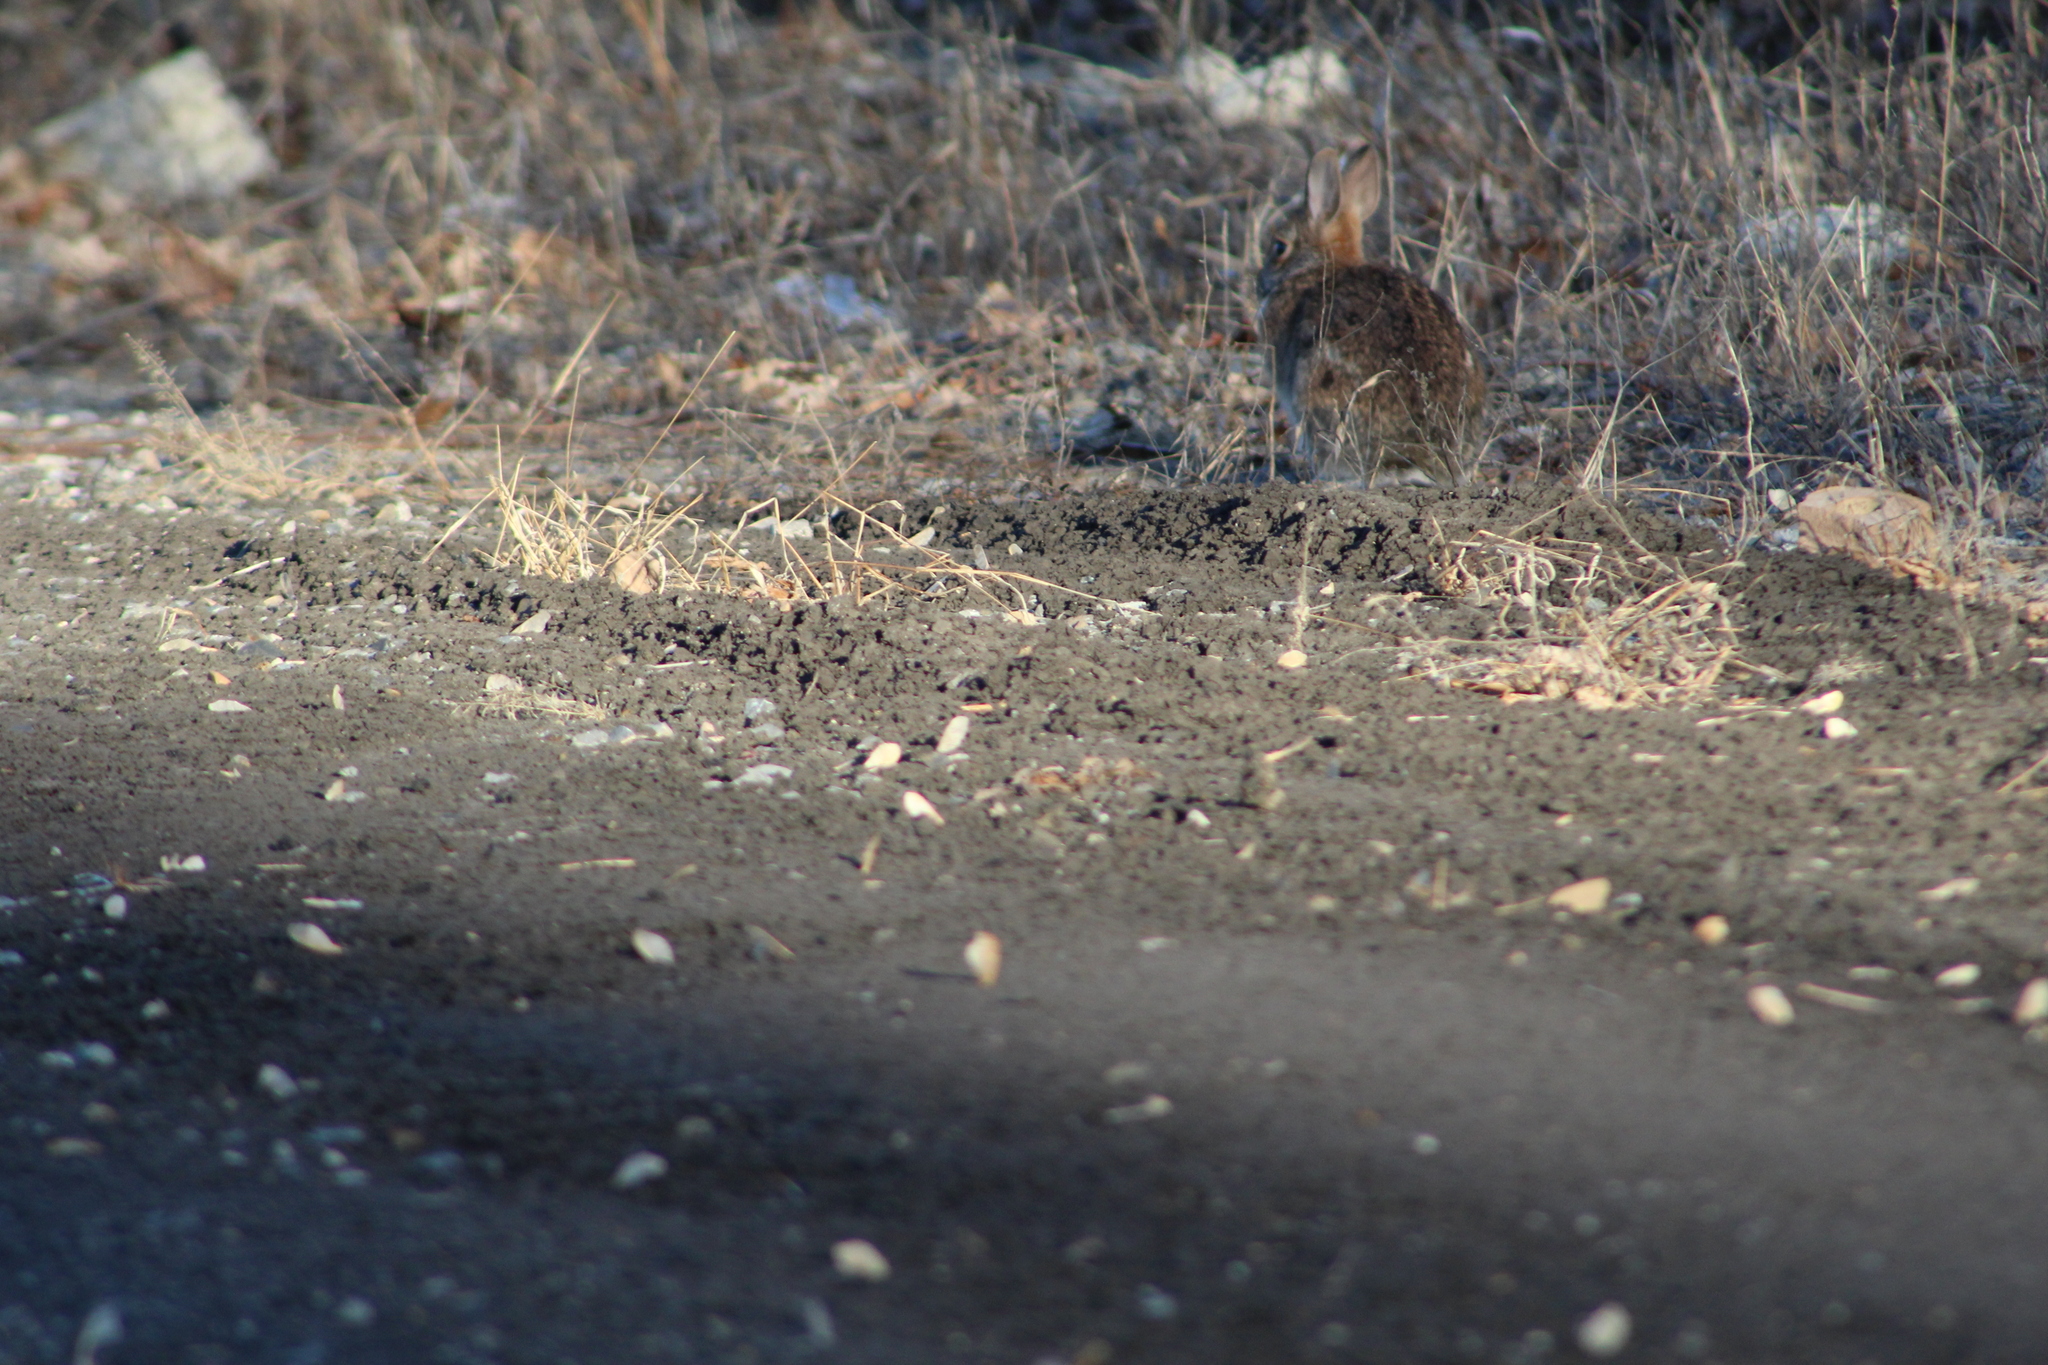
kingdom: Animalia
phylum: Chordata
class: Mammalia
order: Lagomorpha
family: Leporidae
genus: Sylvilagus
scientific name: Sylvilagus floridanus
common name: Eastern cottontail
